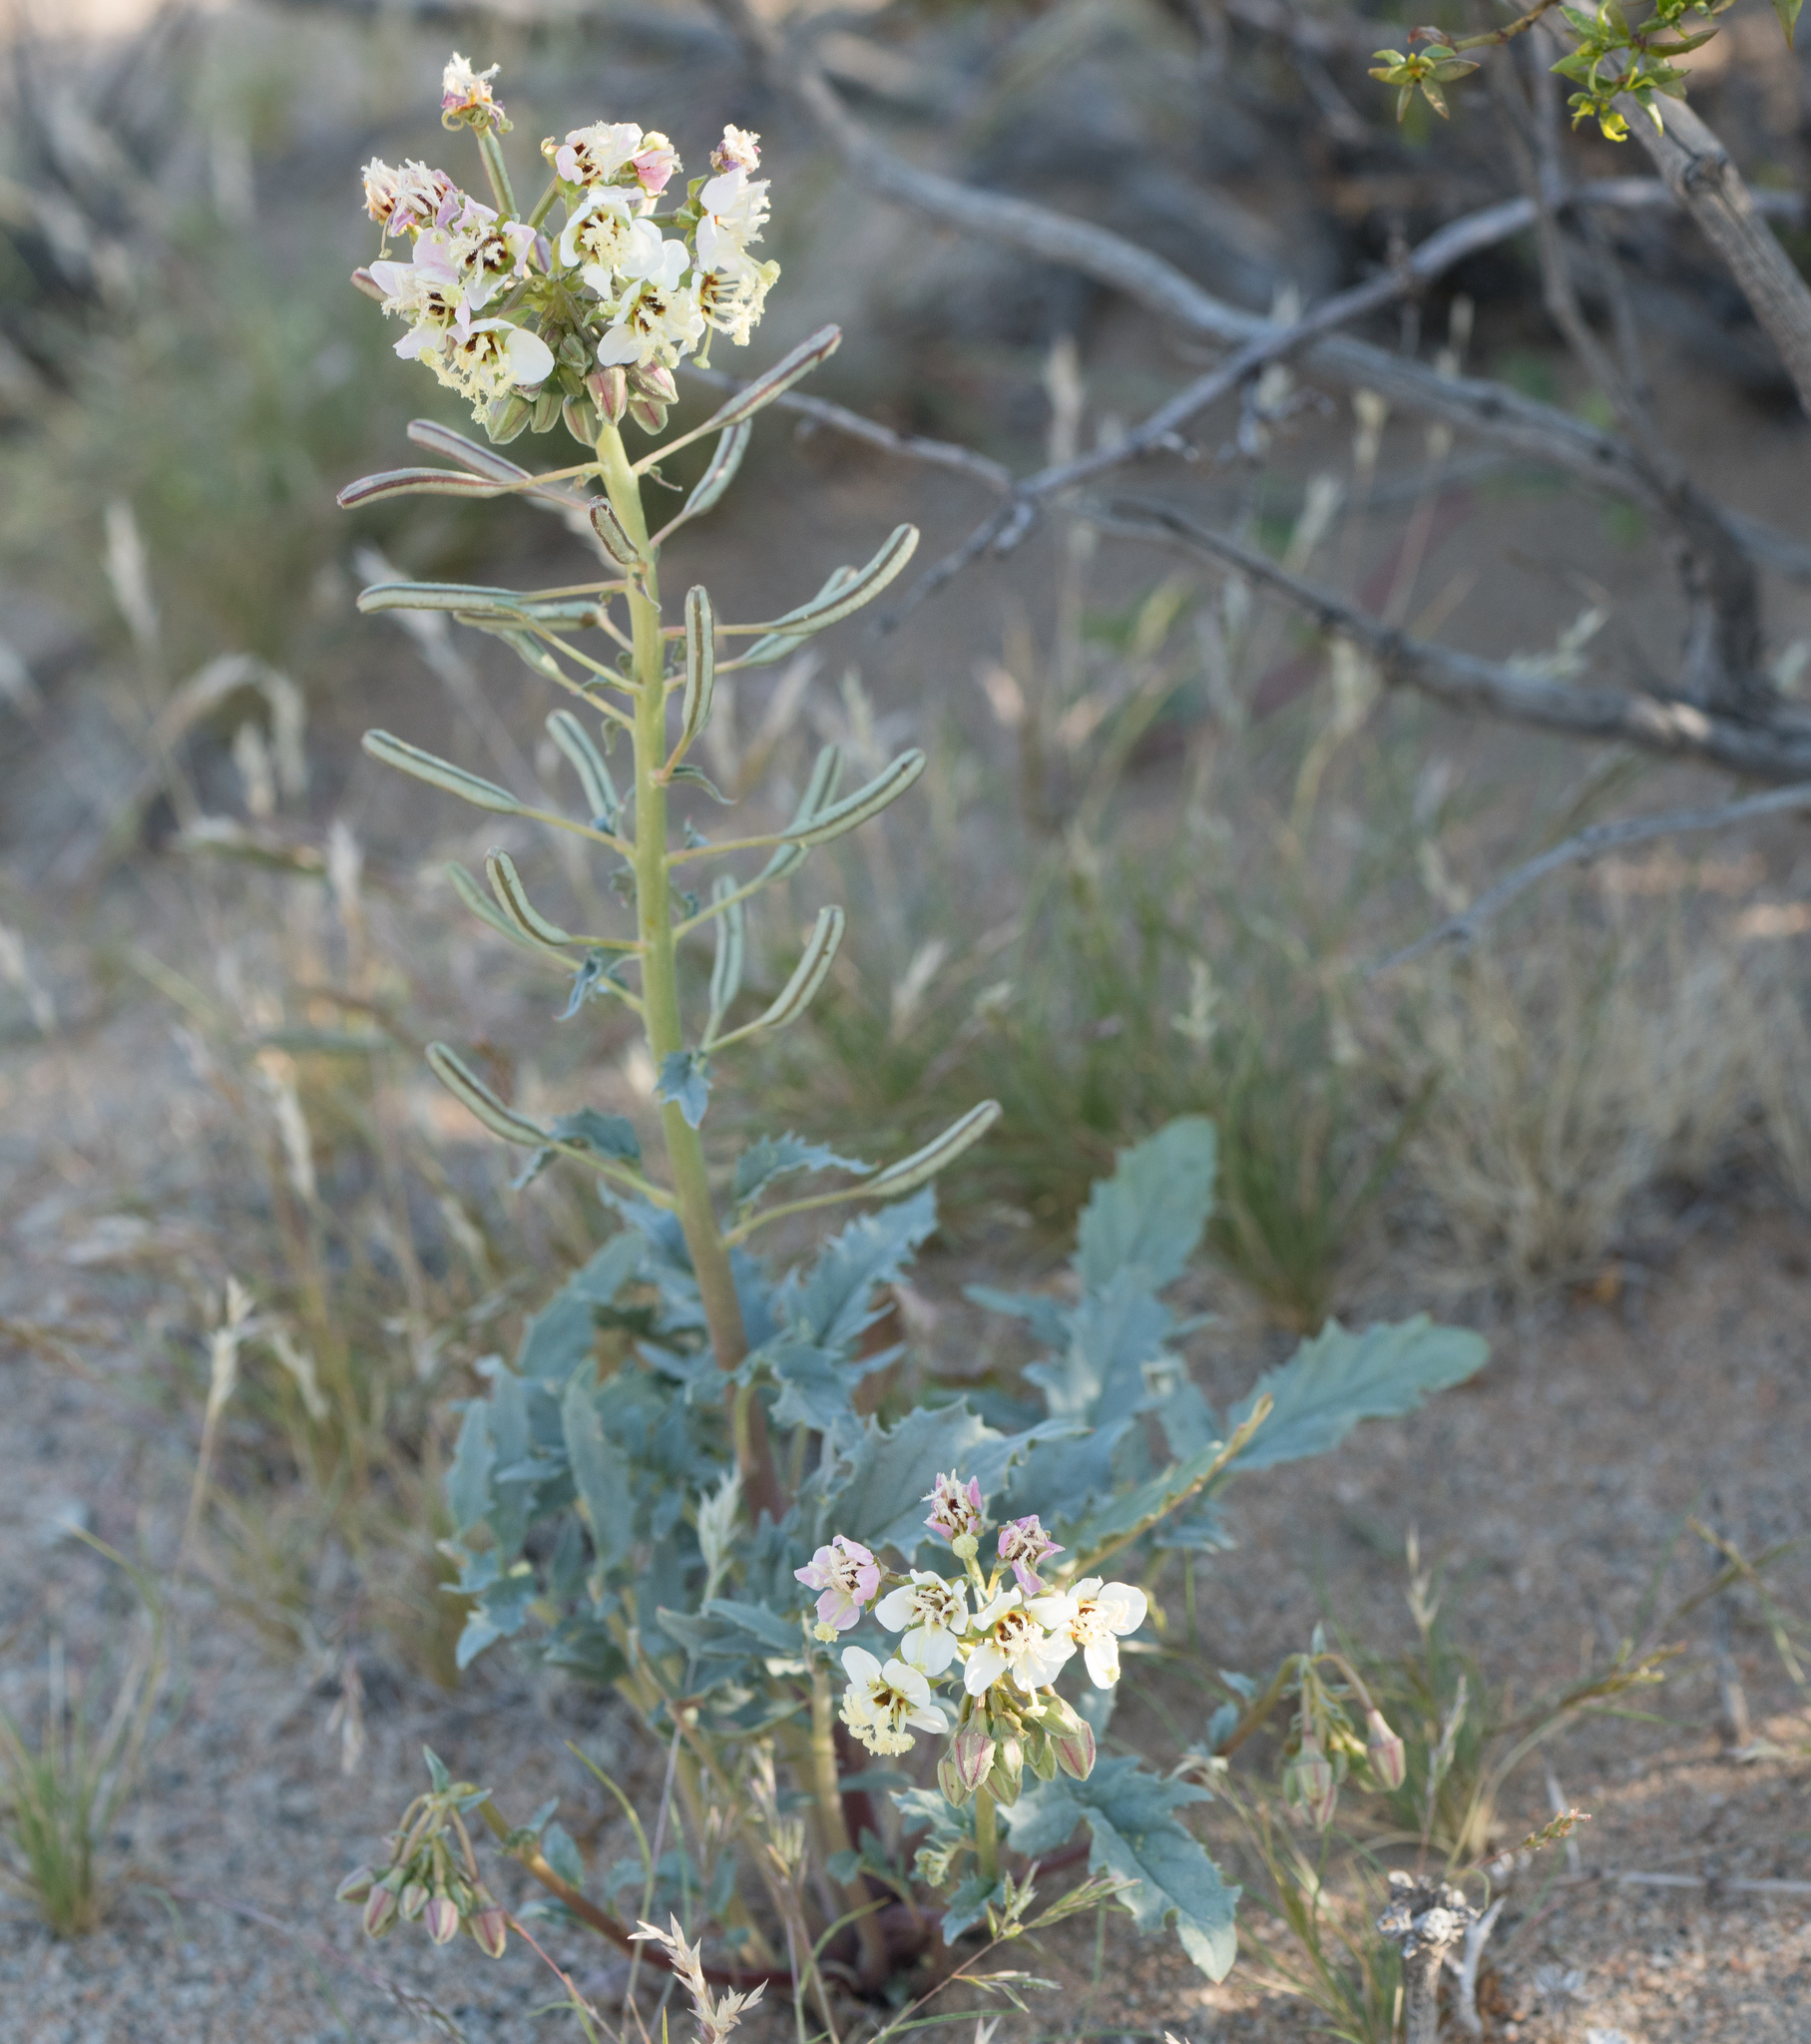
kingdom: Plantae
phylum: Tracheophyta
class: Magnoliopsida
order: Myrtales
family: Onagraceae
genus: Chylismia
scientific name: Chylismia claviformis
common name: Browneyes
